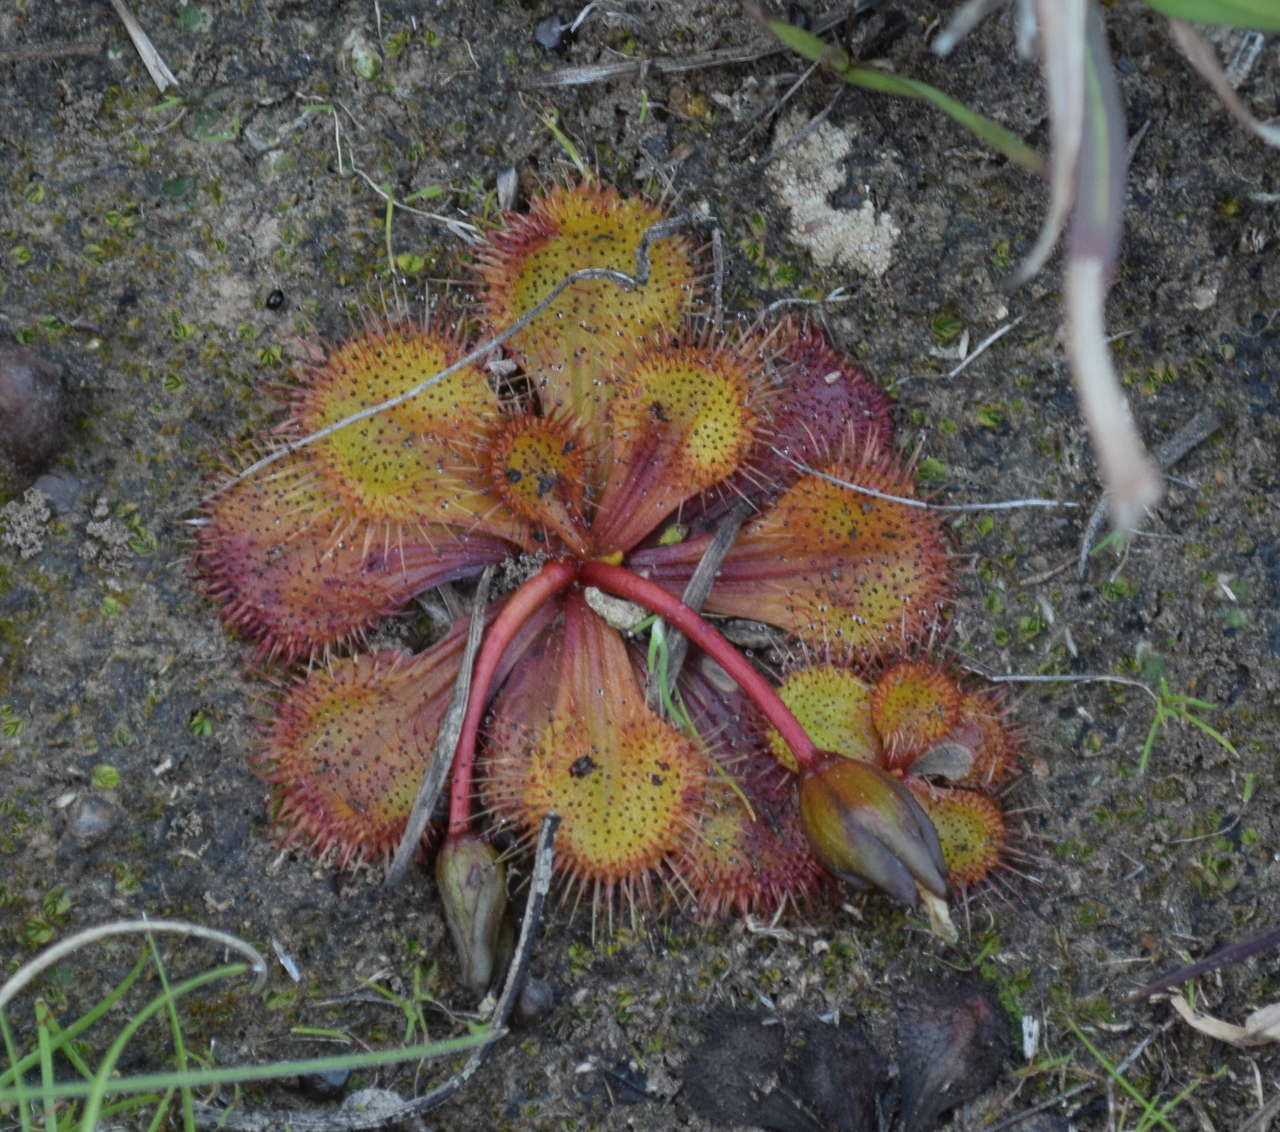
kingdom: Plantae
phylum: Tracheophyta
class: Magnoliopsida
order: Caryophyllales
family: Droseraceae
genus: Drosera
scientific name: Drosera aberrans
